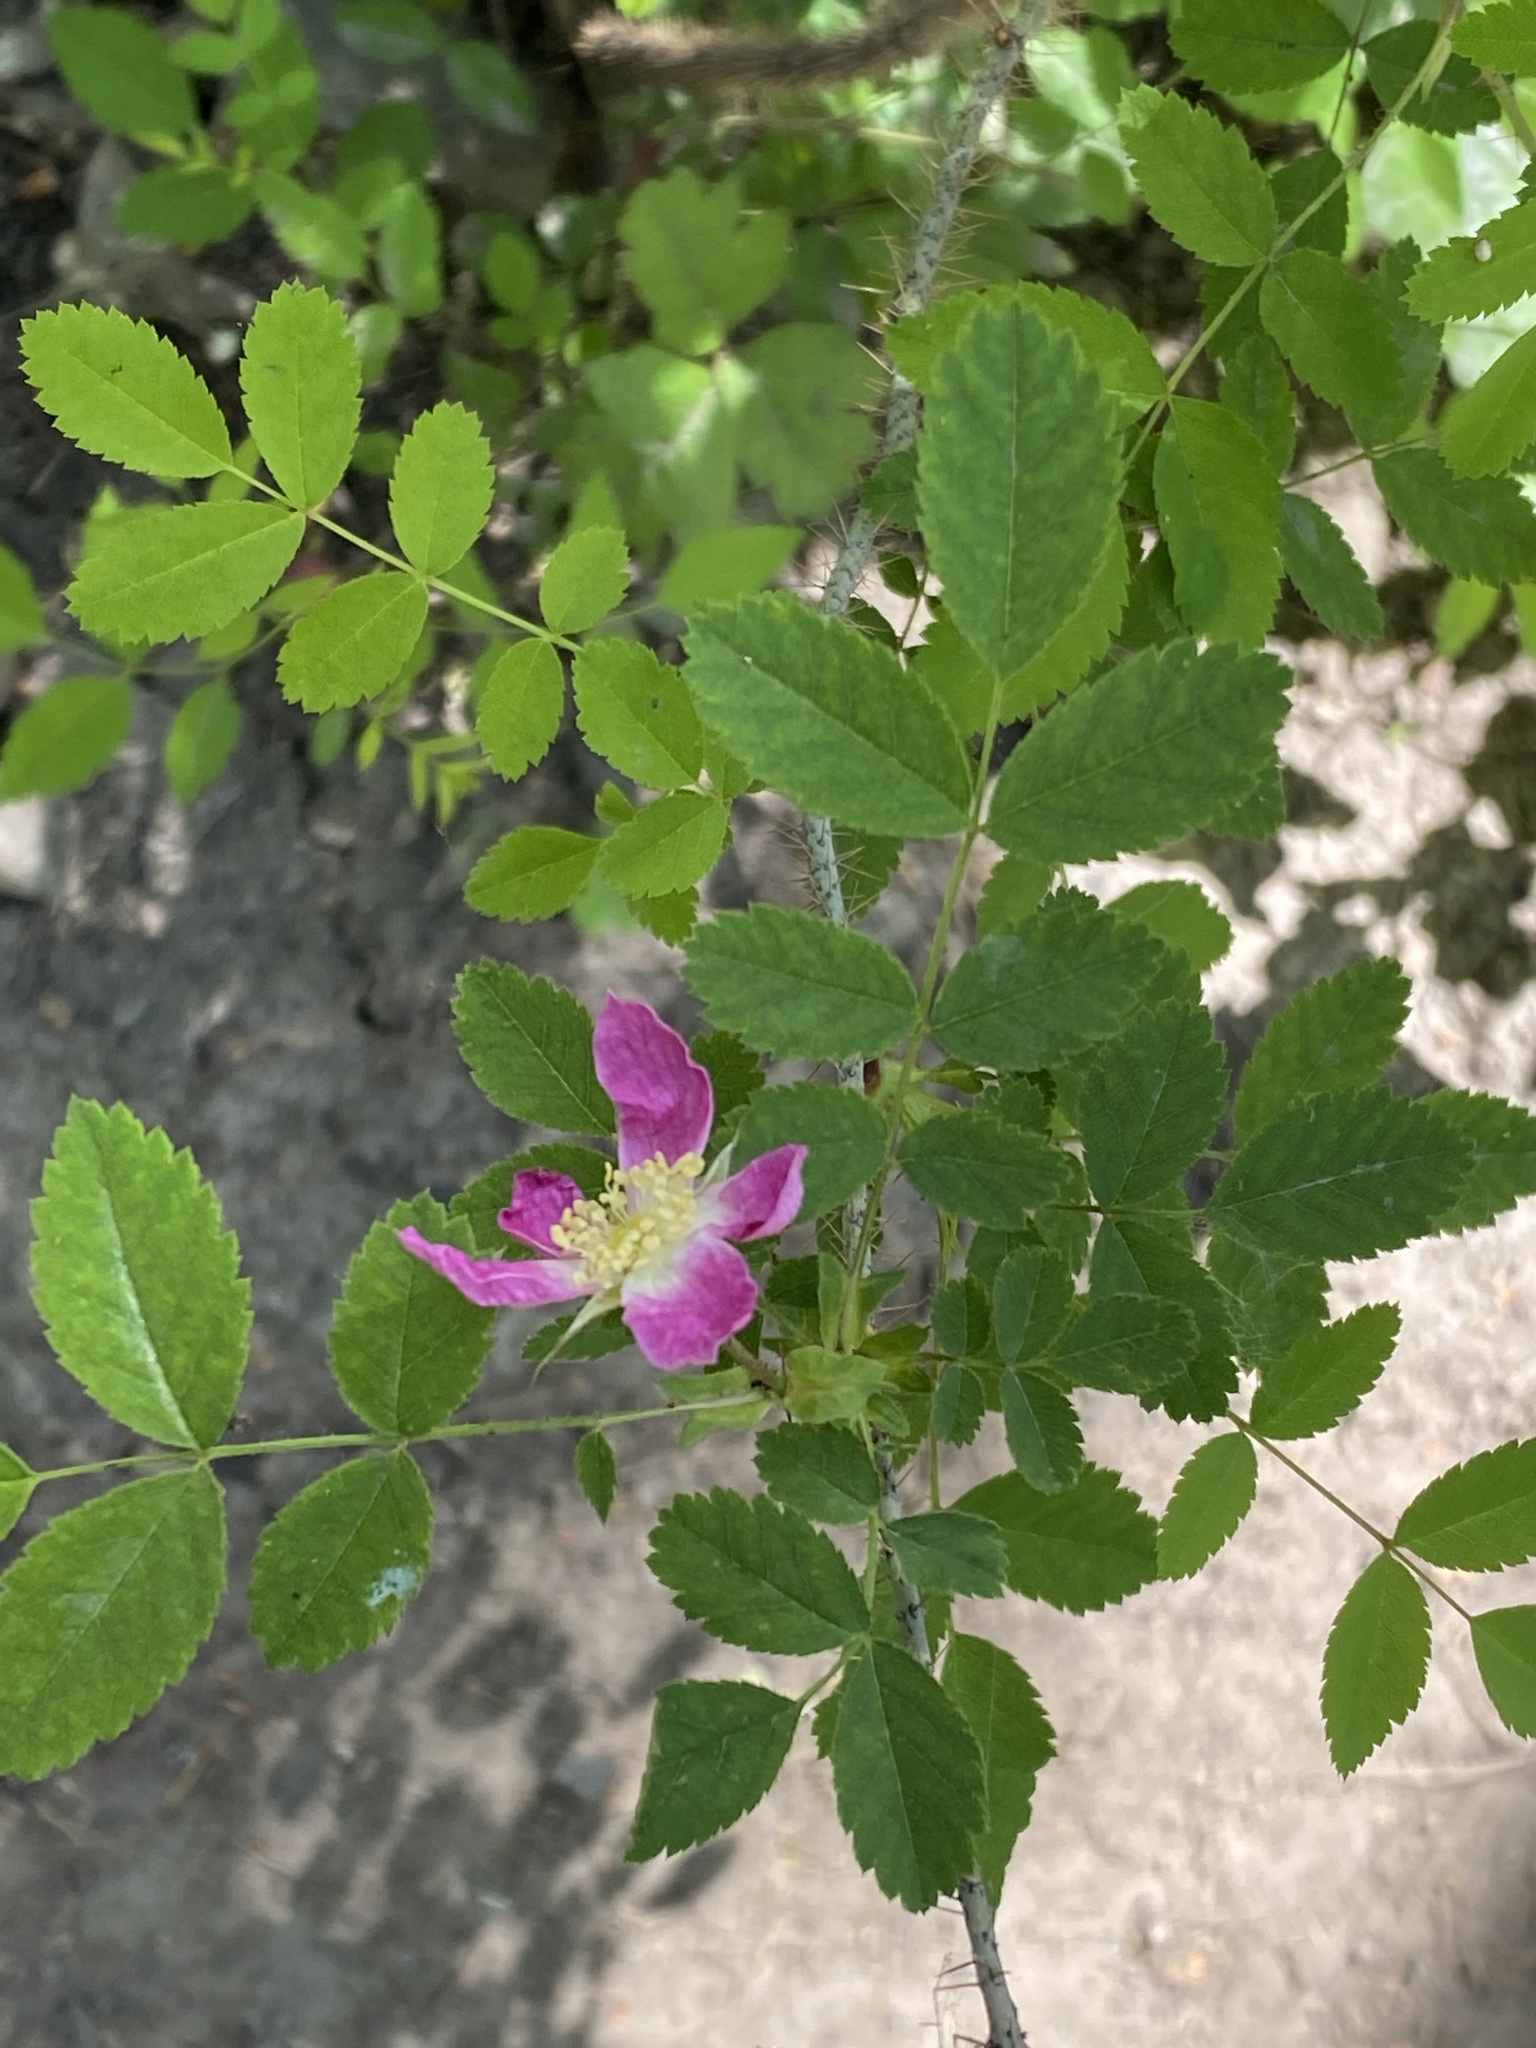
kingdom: Plantae
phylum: Tracheophyta
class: Magnoliopsida
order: Rosales
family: Rosaceae
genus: Rosa
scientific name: Rosa gymnocarpa
